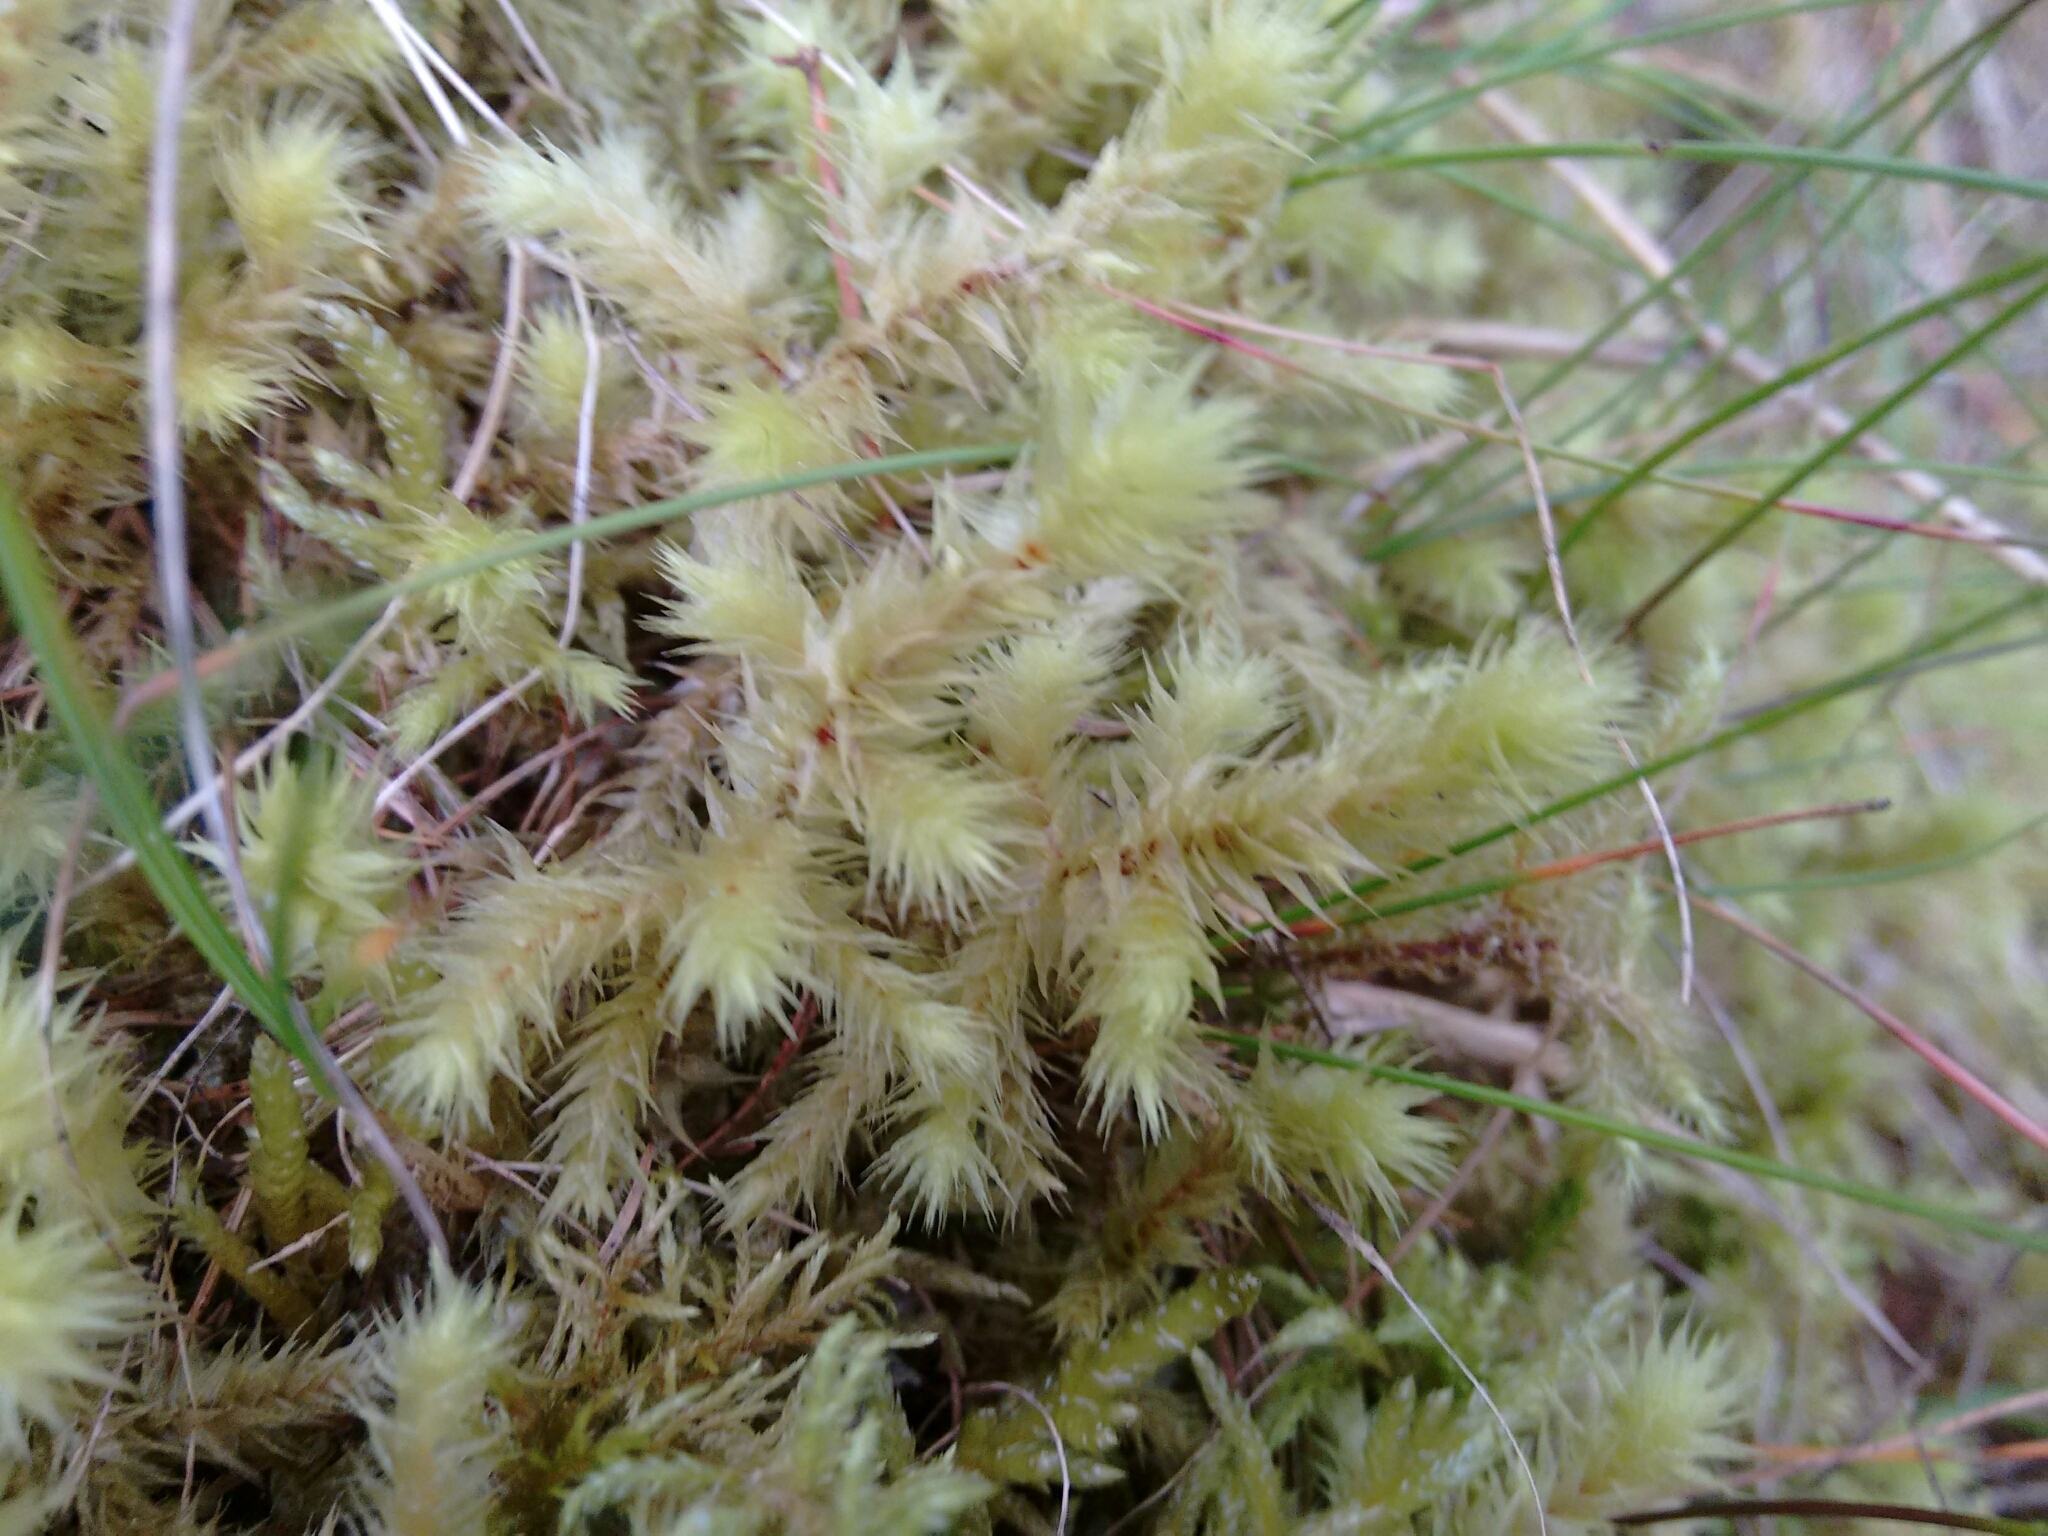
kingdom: Plantae
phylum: Bryophyta
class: Bryopsida
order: Hypnales
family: Hylocomiaceae
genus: Hylocomiadelphus
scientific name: Hylocomiadelphus triquetrus
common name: Rough goose neck moss
